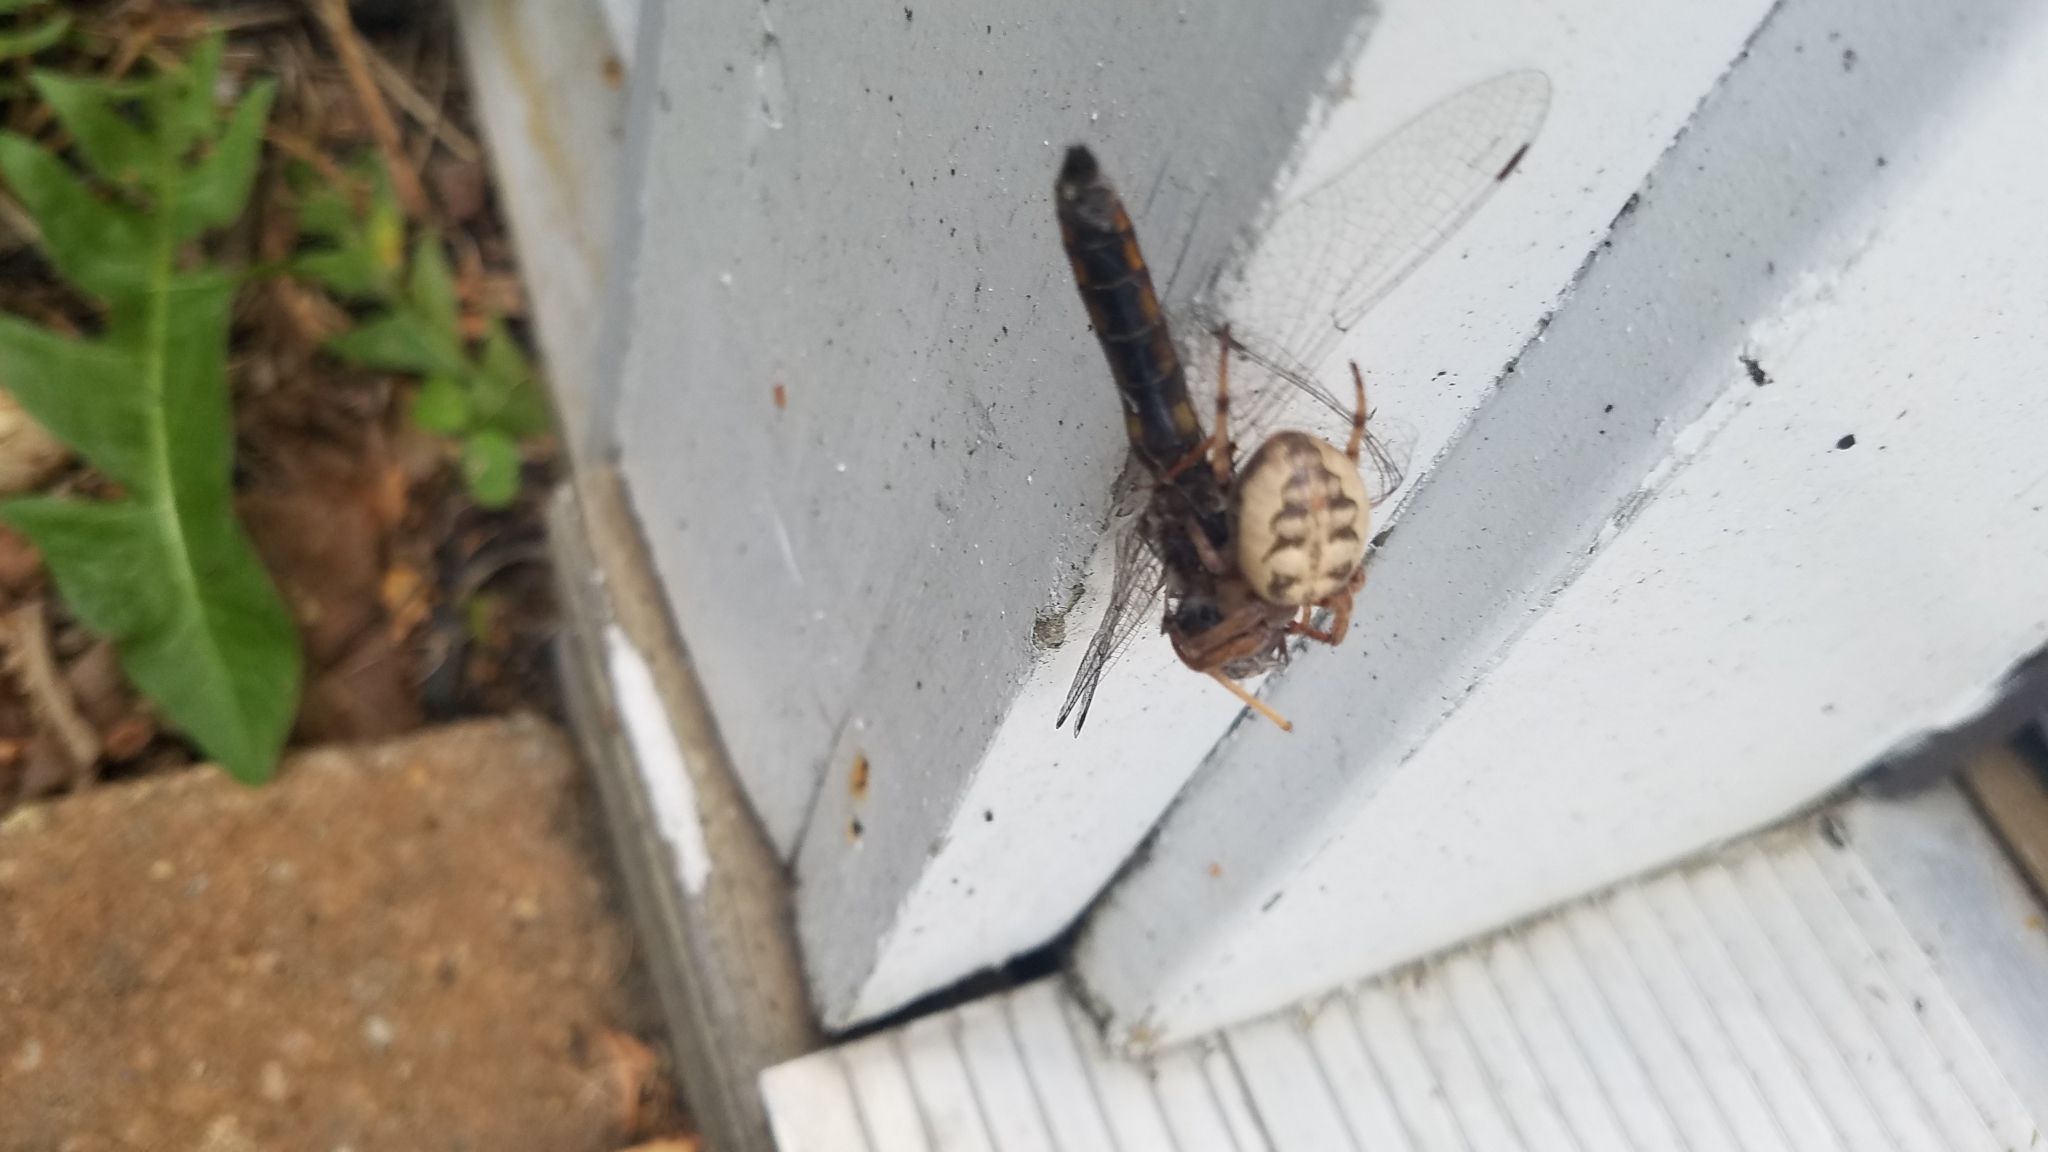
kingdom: Animalia
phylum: Arthropoda
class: Arachnida
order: Araneae
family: Araneidae
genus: Larinioides
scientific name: Larinioides cornutus
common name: Furrow orbweaver
